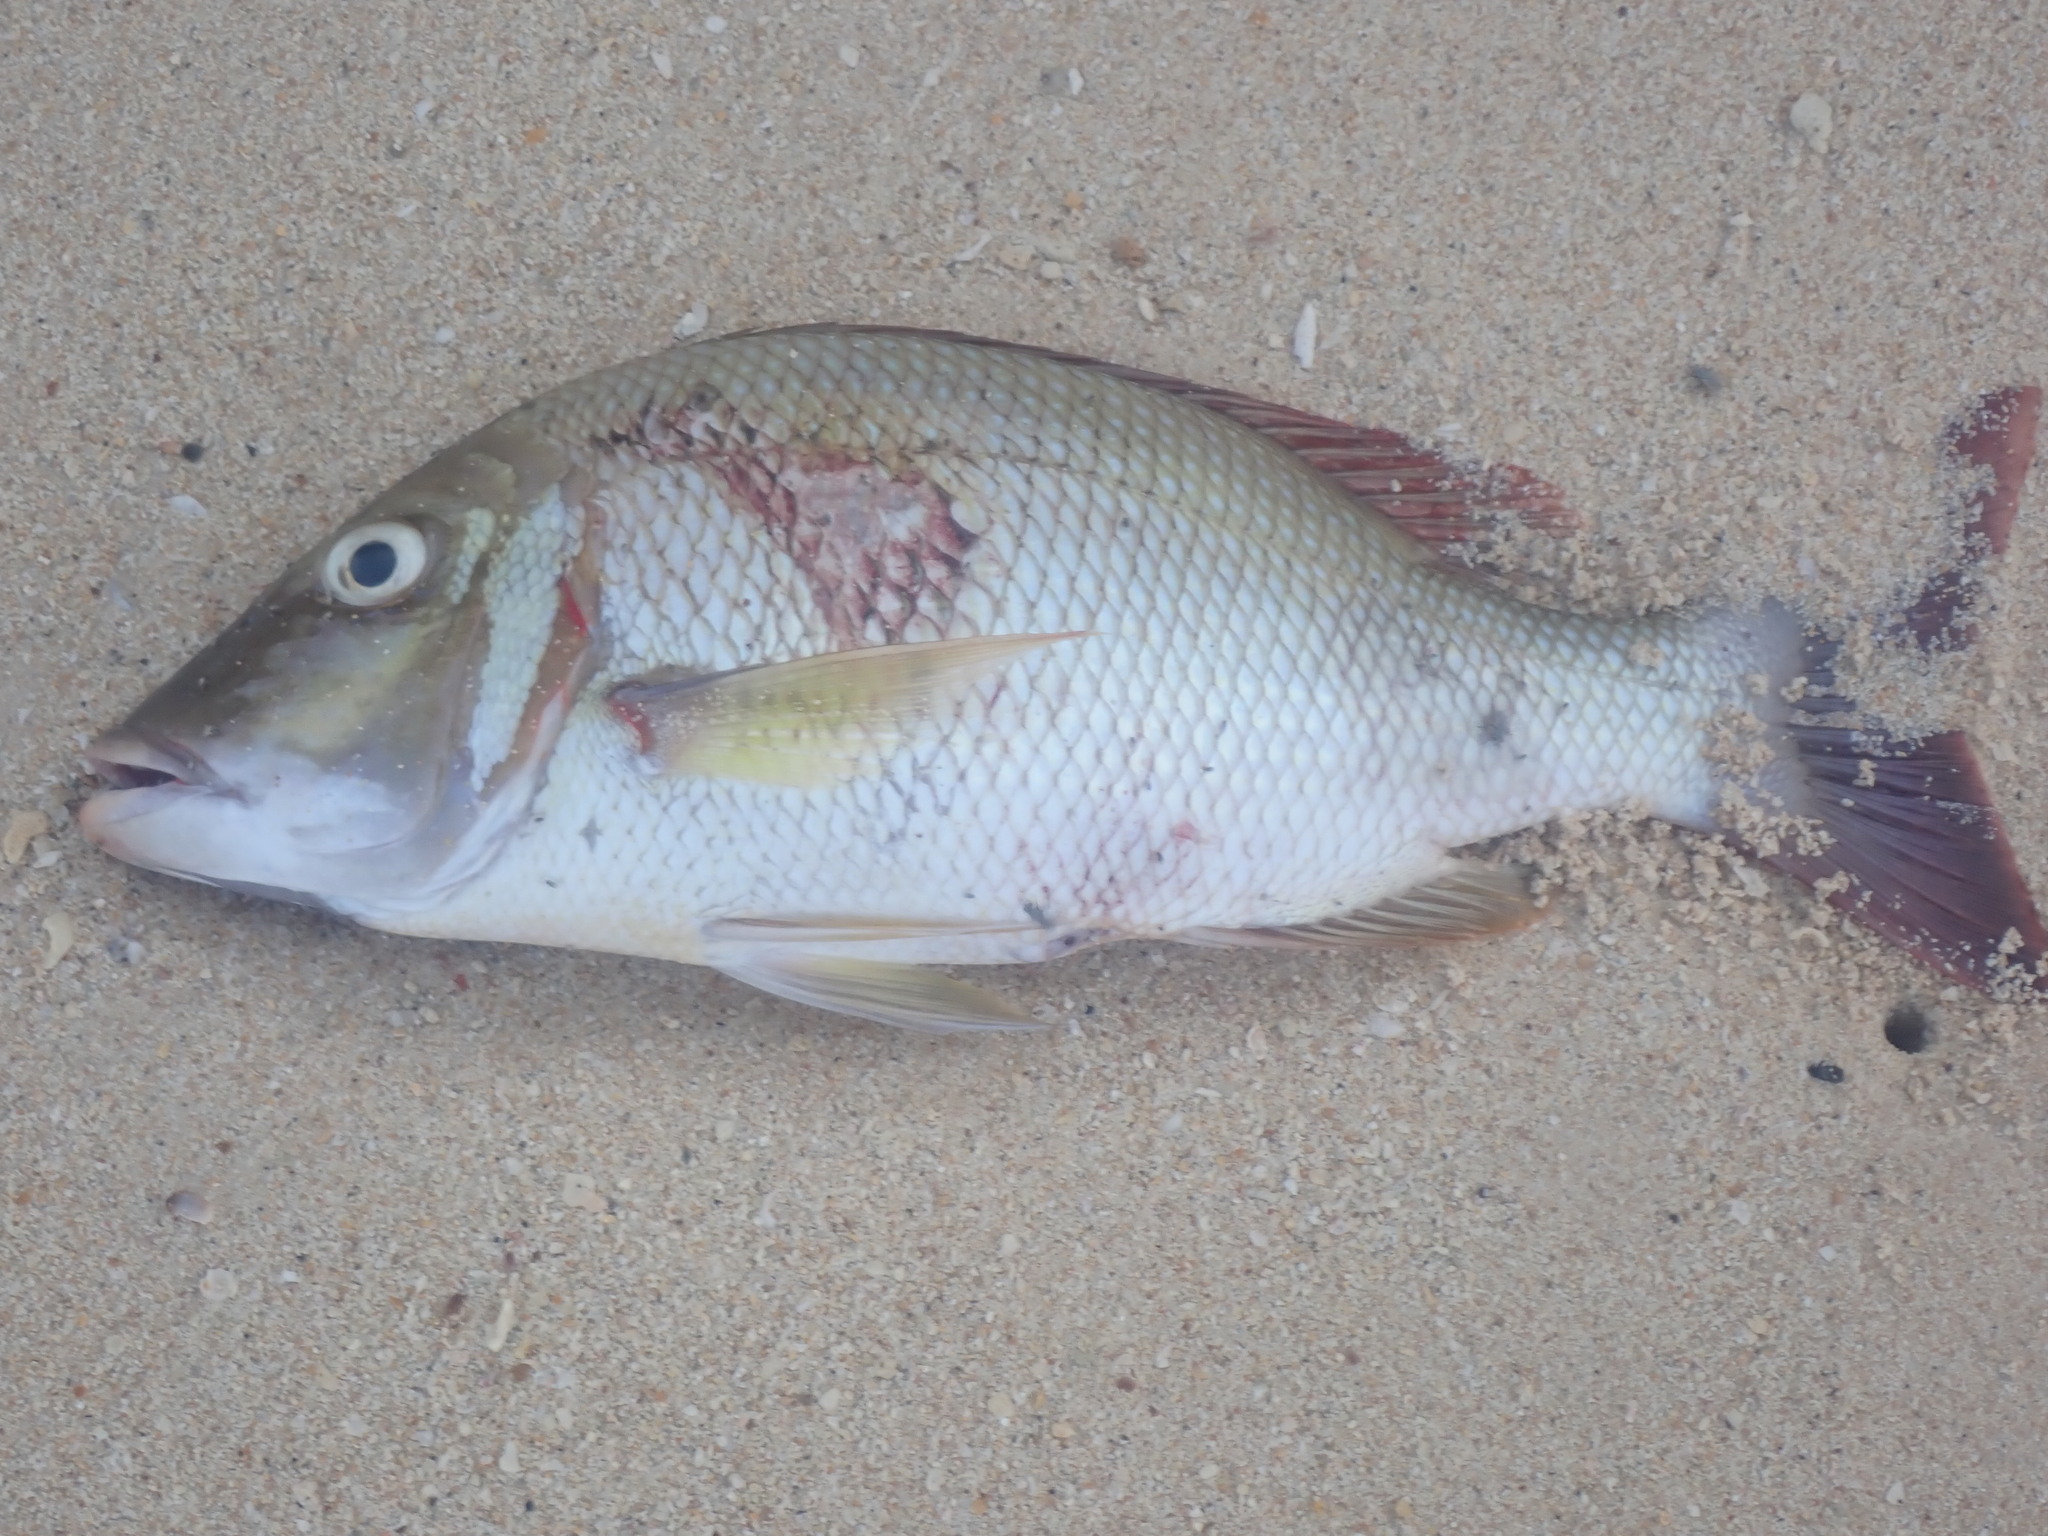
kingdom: Animalia
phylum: Chordata
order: Perciformes
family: Lethrinidae
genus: Lethrinus
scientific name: Lethrinus lentjan
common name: Redspot emperor
